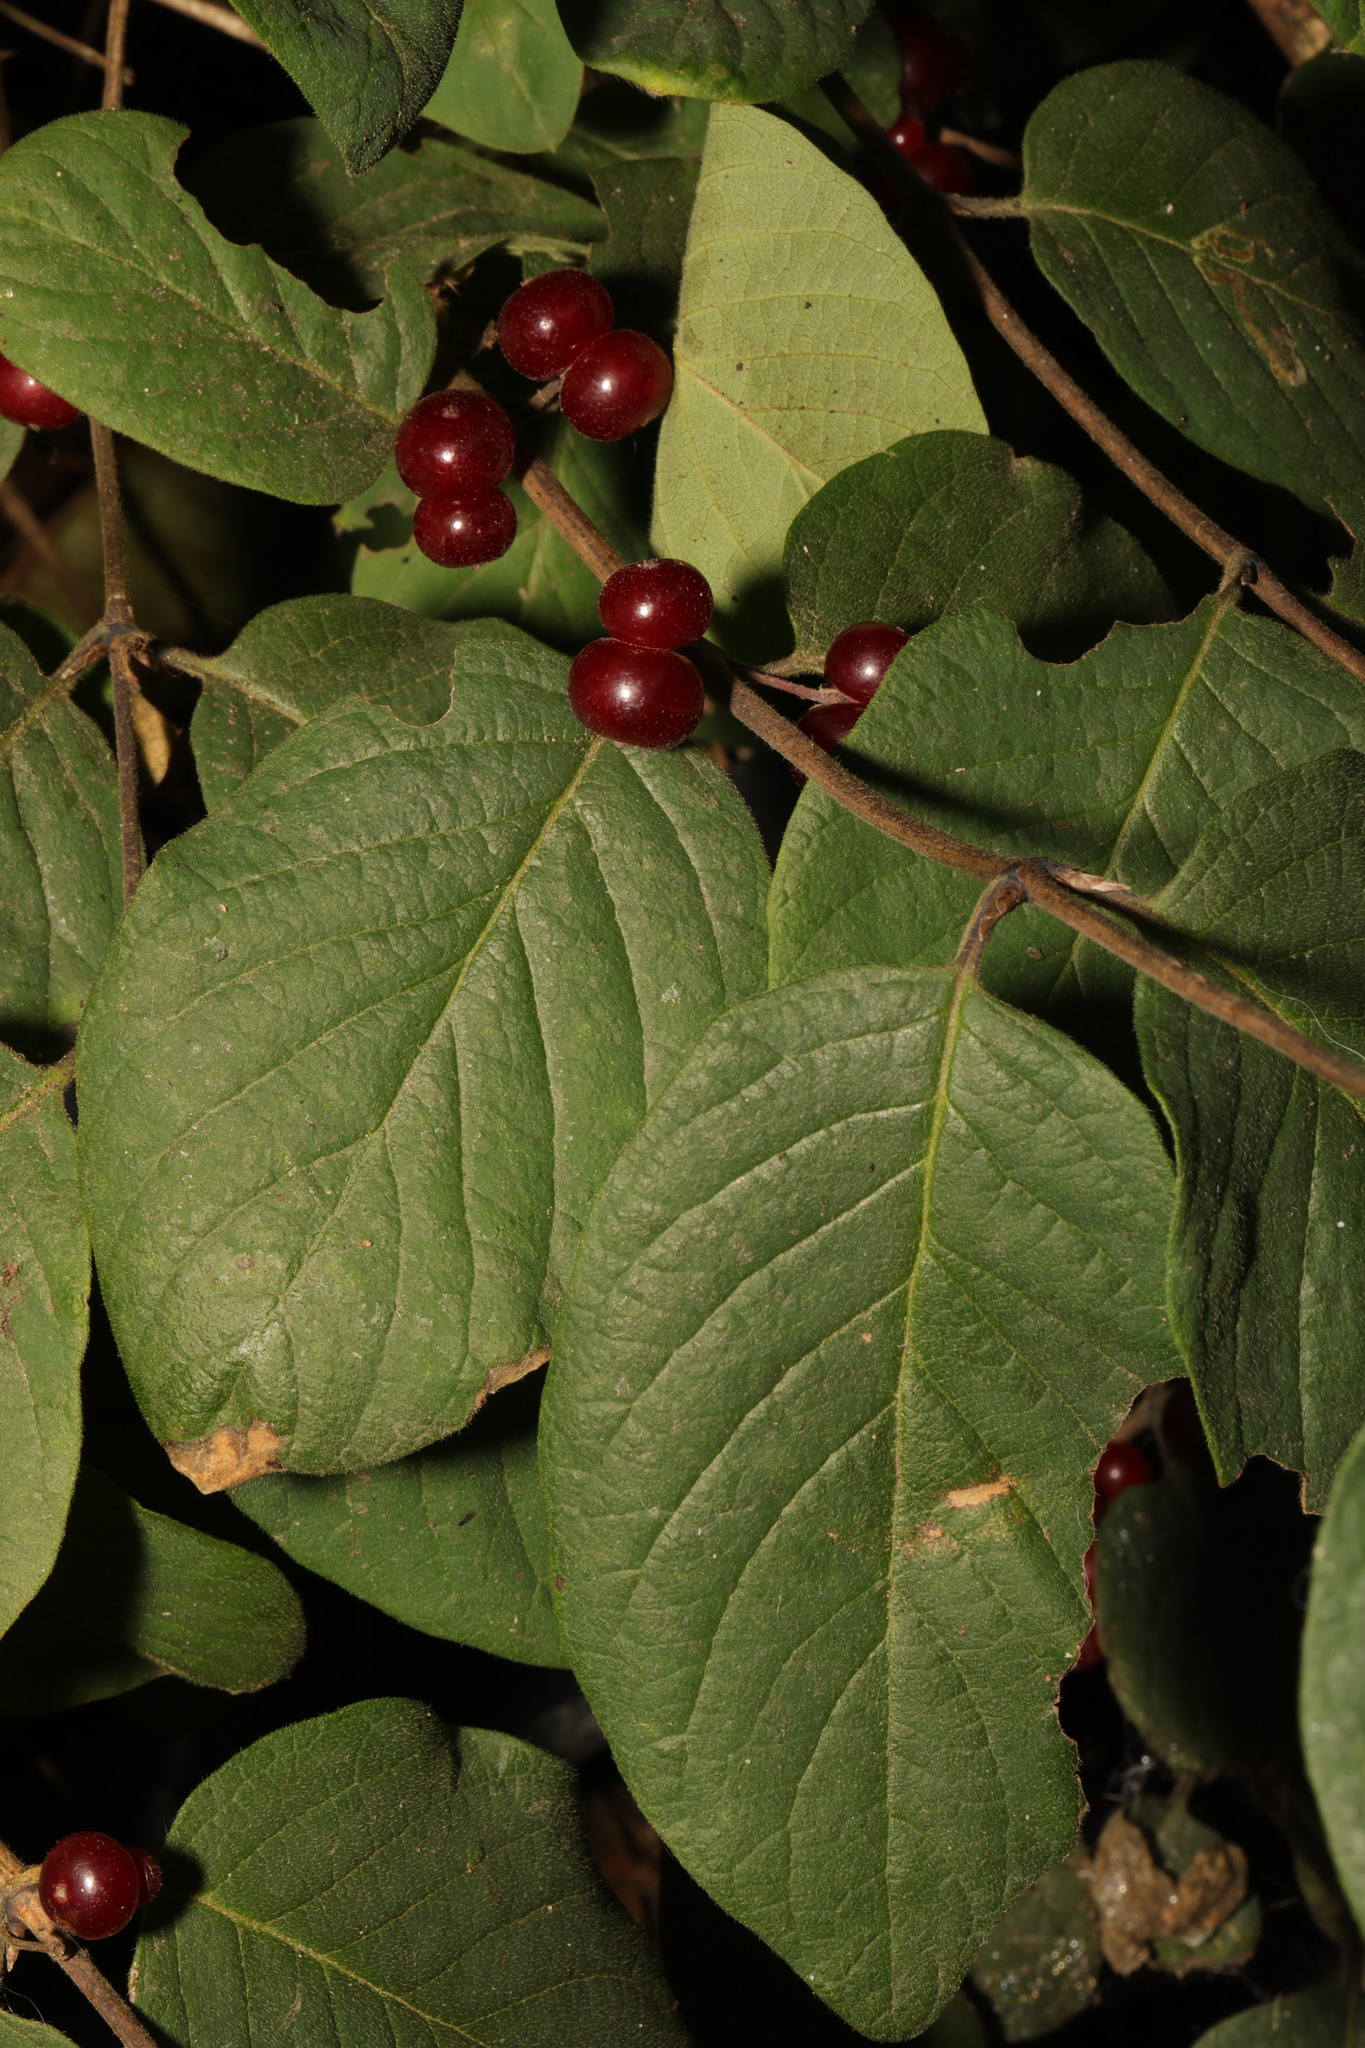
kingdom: Plantae
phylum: Tracheophyta
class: Magnoliopsida
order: Dipsacales
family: Caprifoliaceae
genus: Lonicera
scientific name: Lonicera xylosteum
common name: Fly honeysuckle
